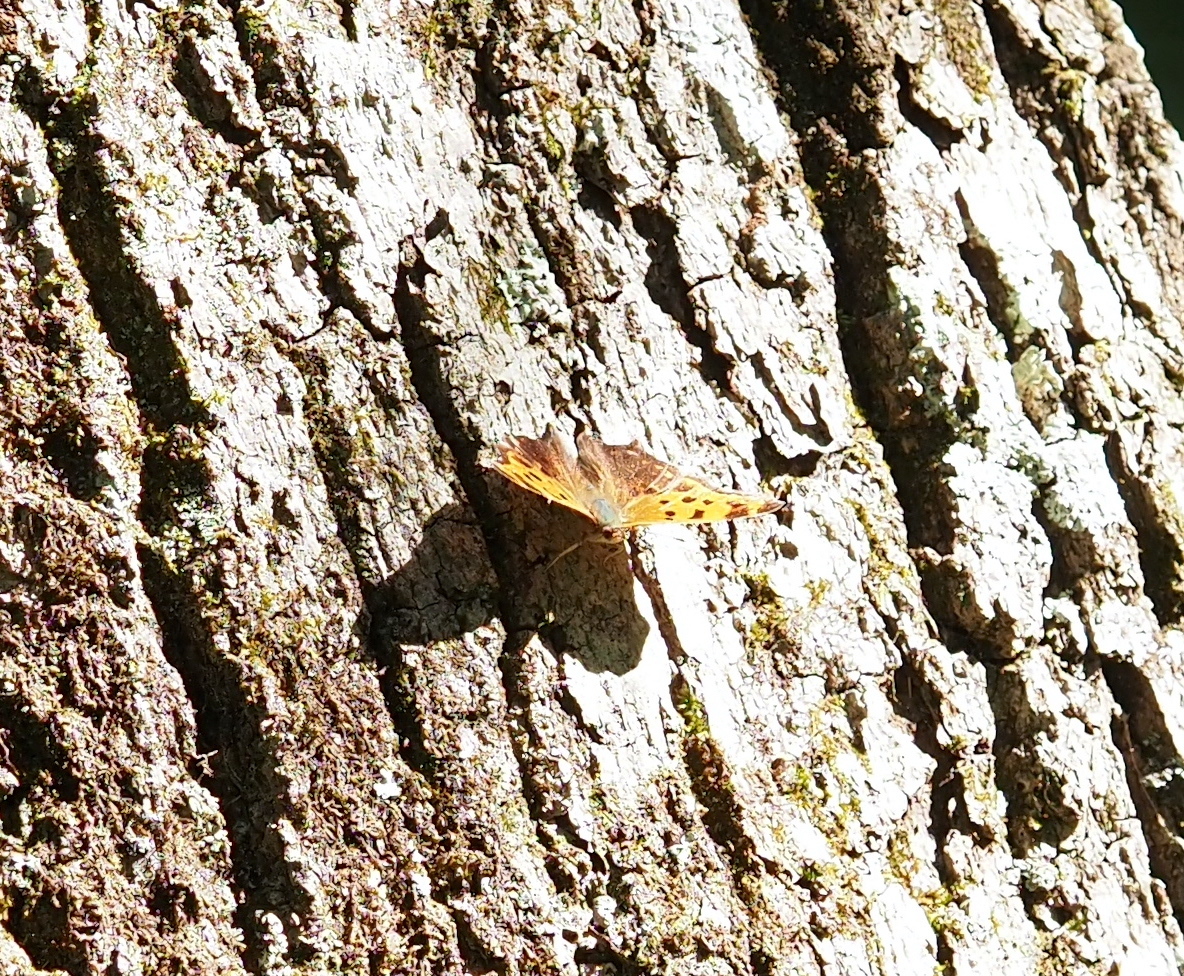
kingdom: Animalia
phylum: Arthropoda
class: Insecta
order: Lepidoptera
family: Nymphalidae
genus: Polygonia
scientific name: Polygonia comma
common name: Eastern comma
